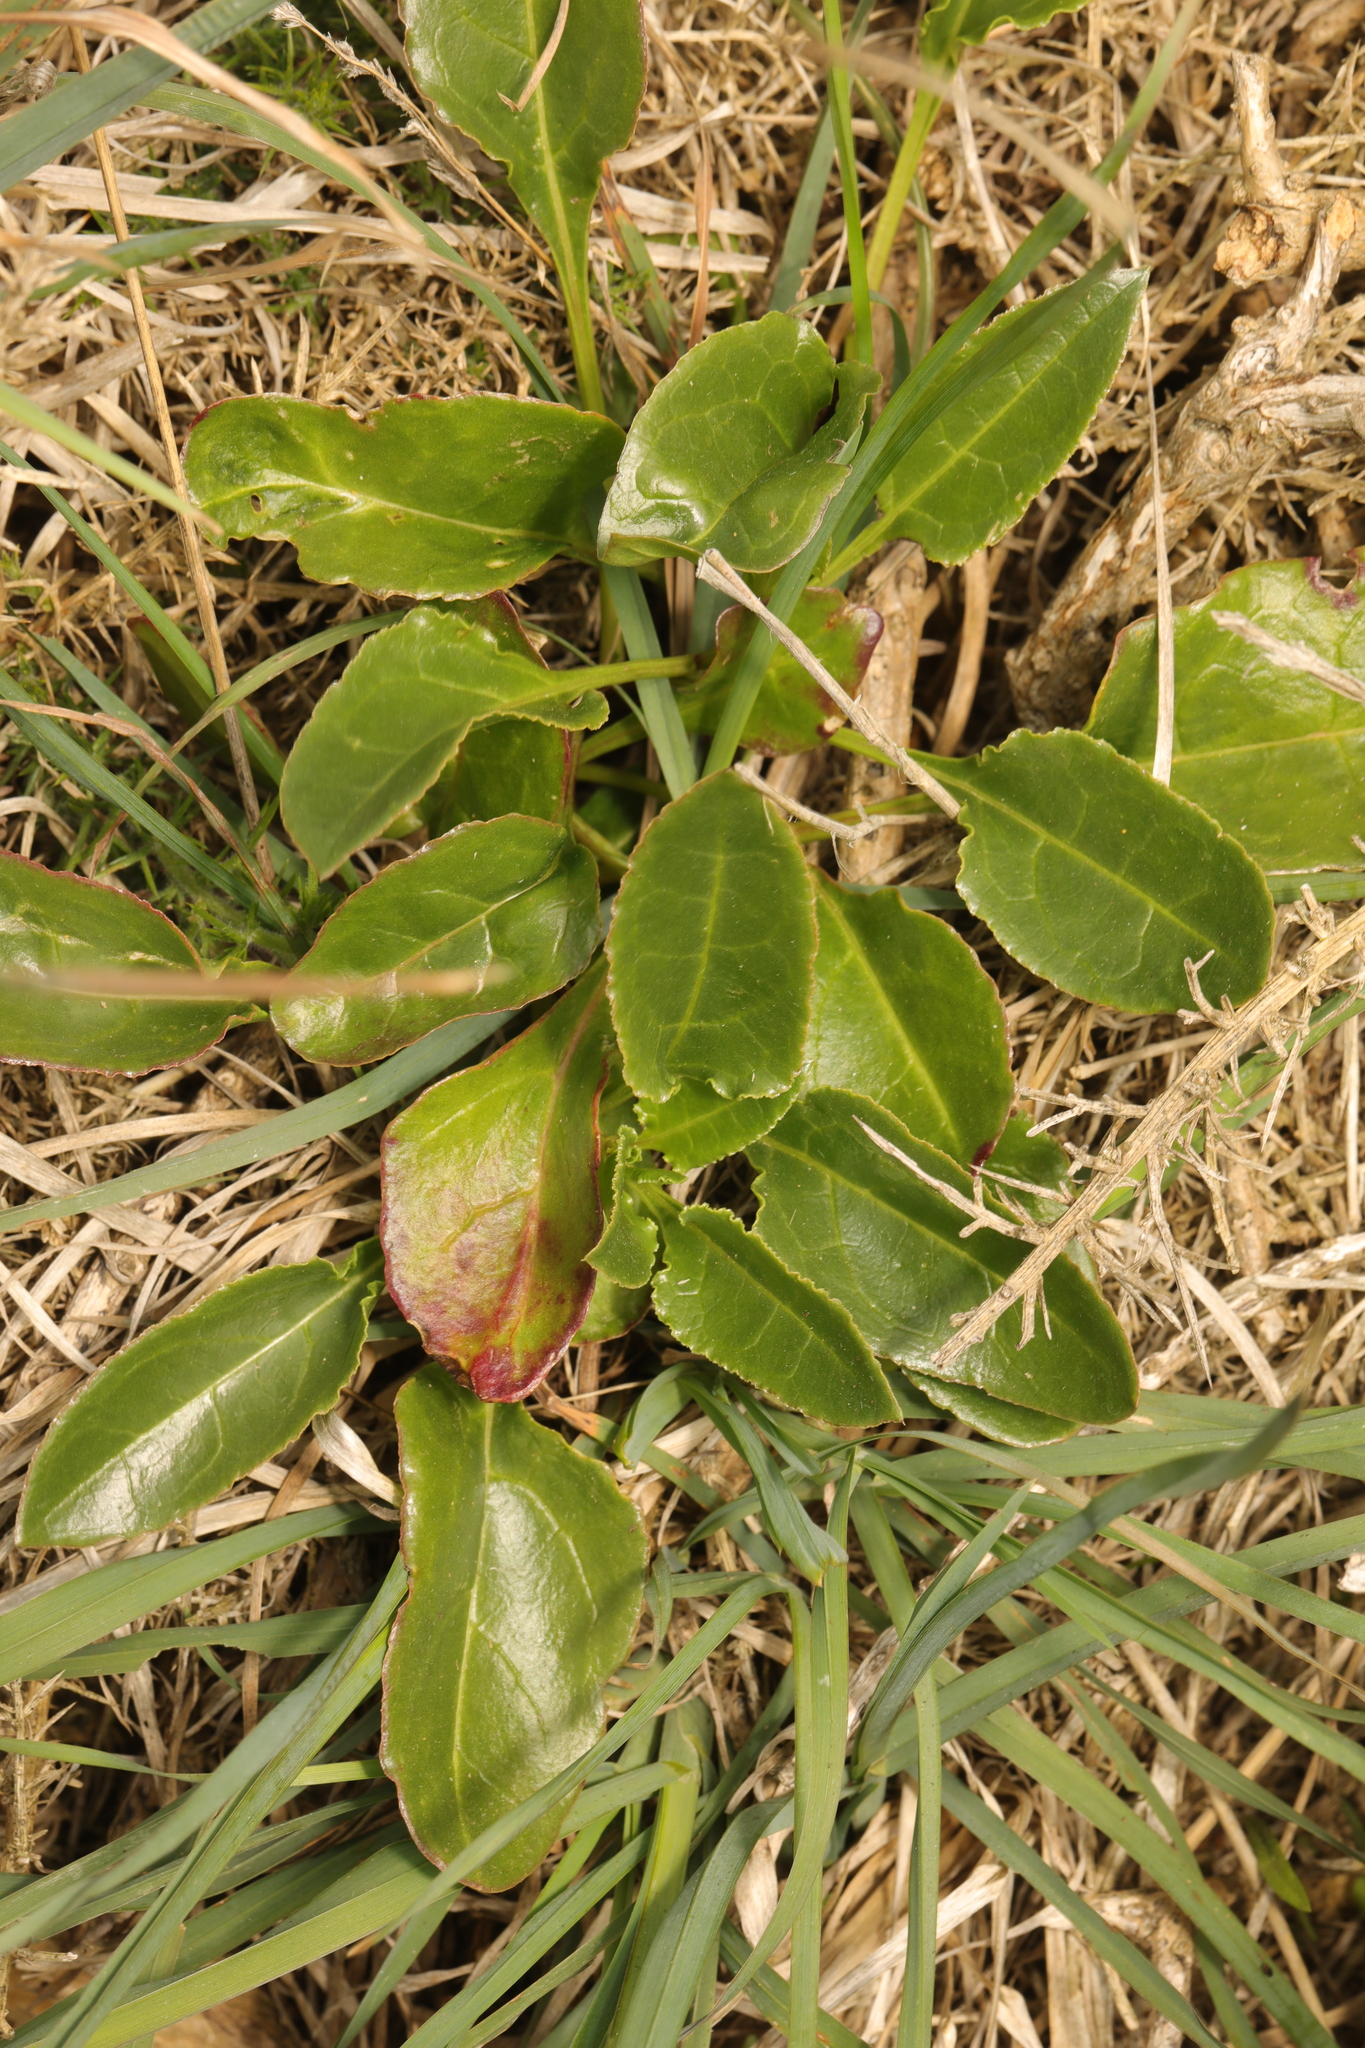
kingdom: Plantae
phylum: Tracheophyta
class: Magnoliopsida
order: Caryophyllales
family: Amaranthaceae
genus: Beta
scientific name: Beta vulgaris
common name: Beet
